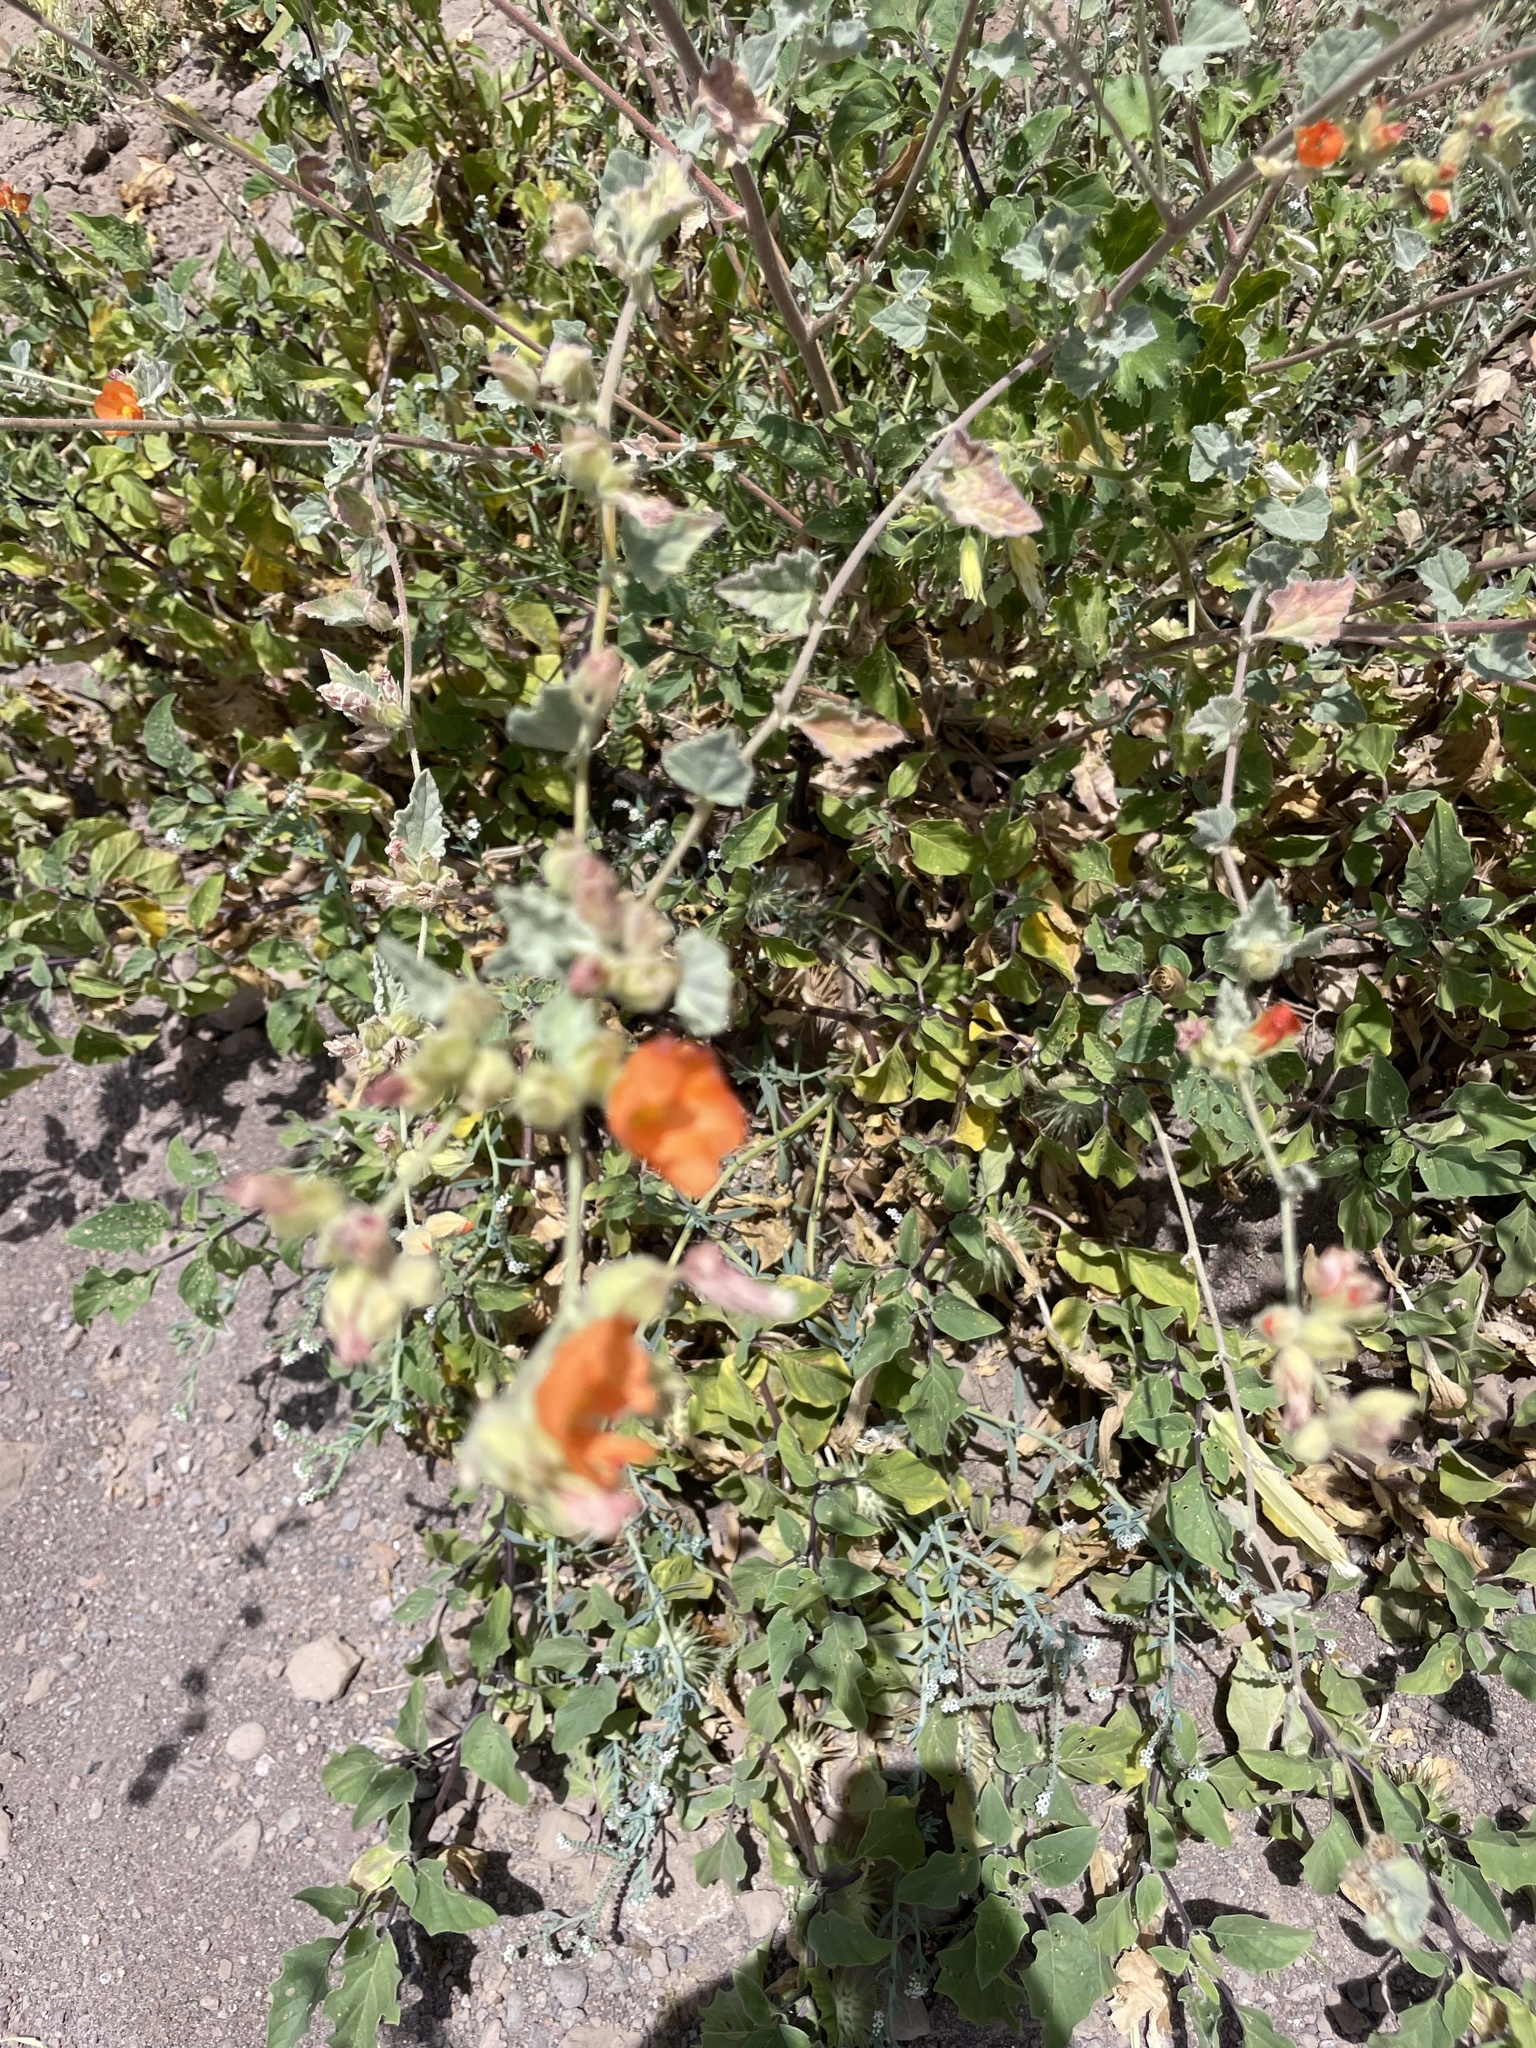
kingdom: Plantae
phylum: Tracheophyta
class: Magnoliopsida
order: Malvales
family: Malvaceae
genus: Sphaeralcea
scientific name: Sphaeralcea coulteri
